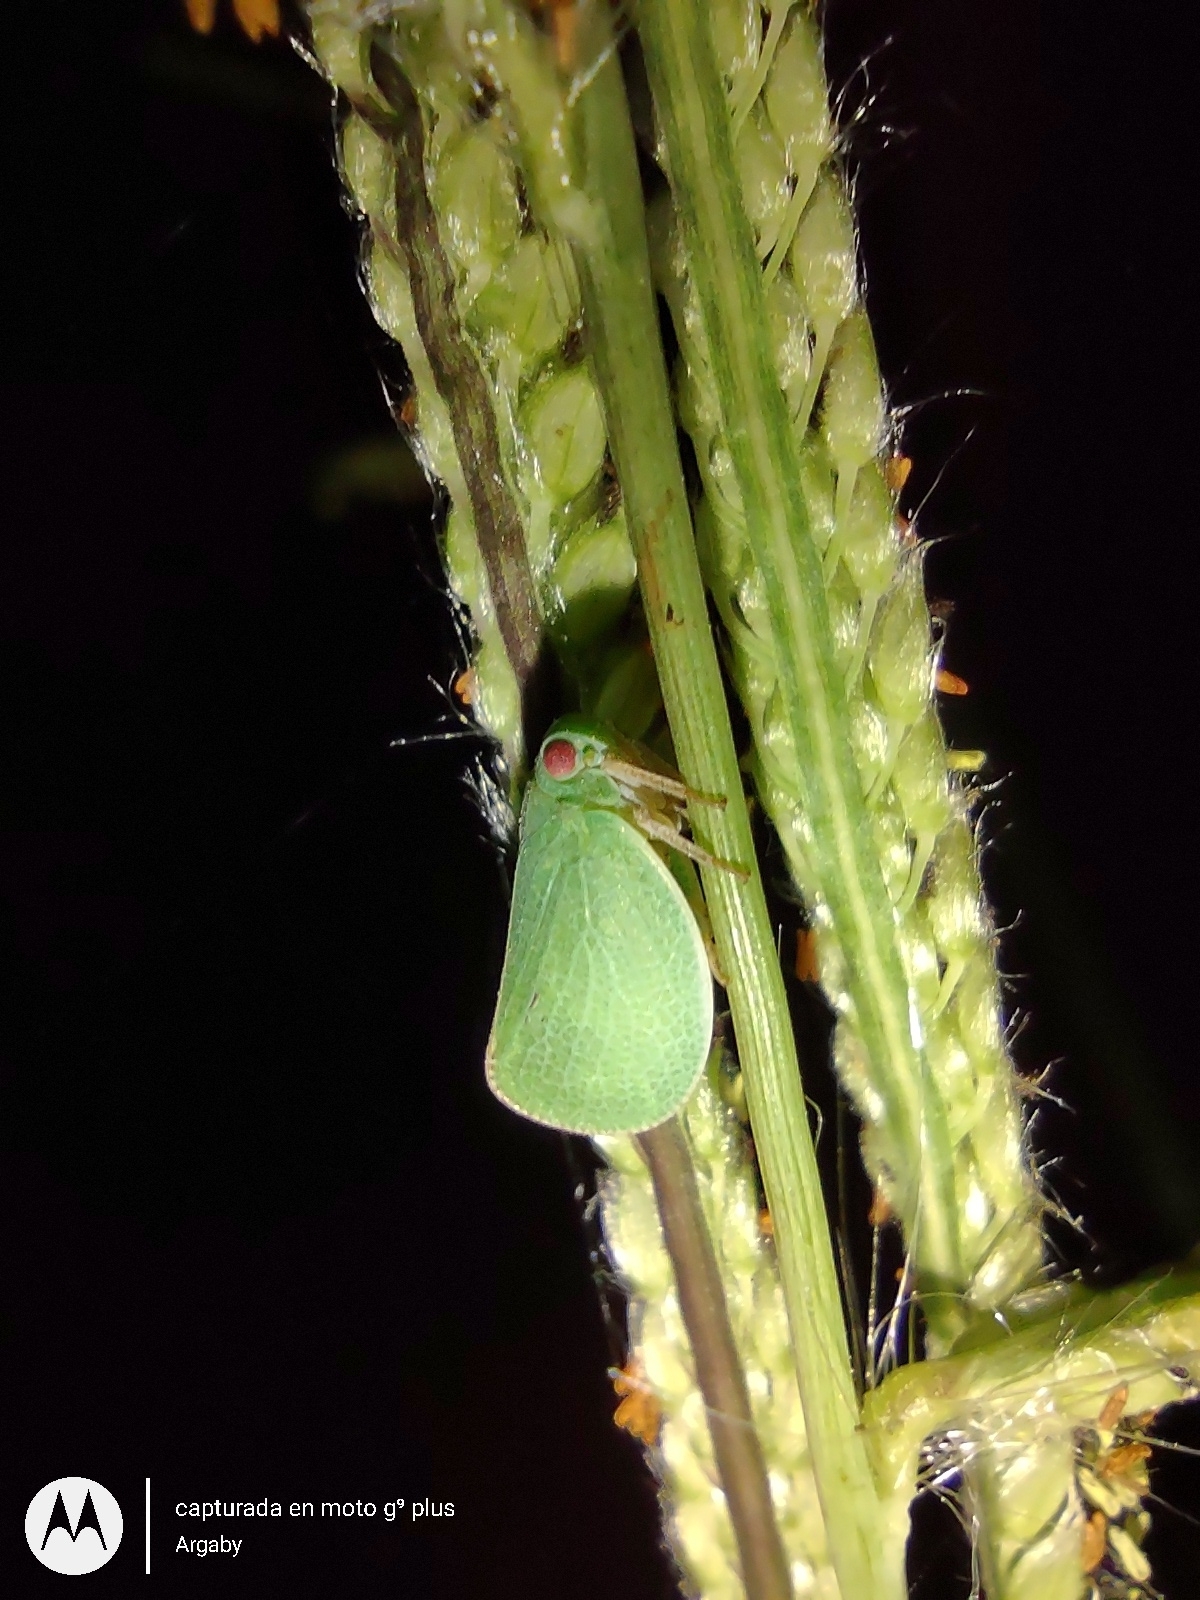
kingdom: Animalia
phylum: Arthropoda
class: Insecta
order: Hemiptera
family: Acanaloniidae
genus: Acanalonia
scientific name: Acanalonia chloris
